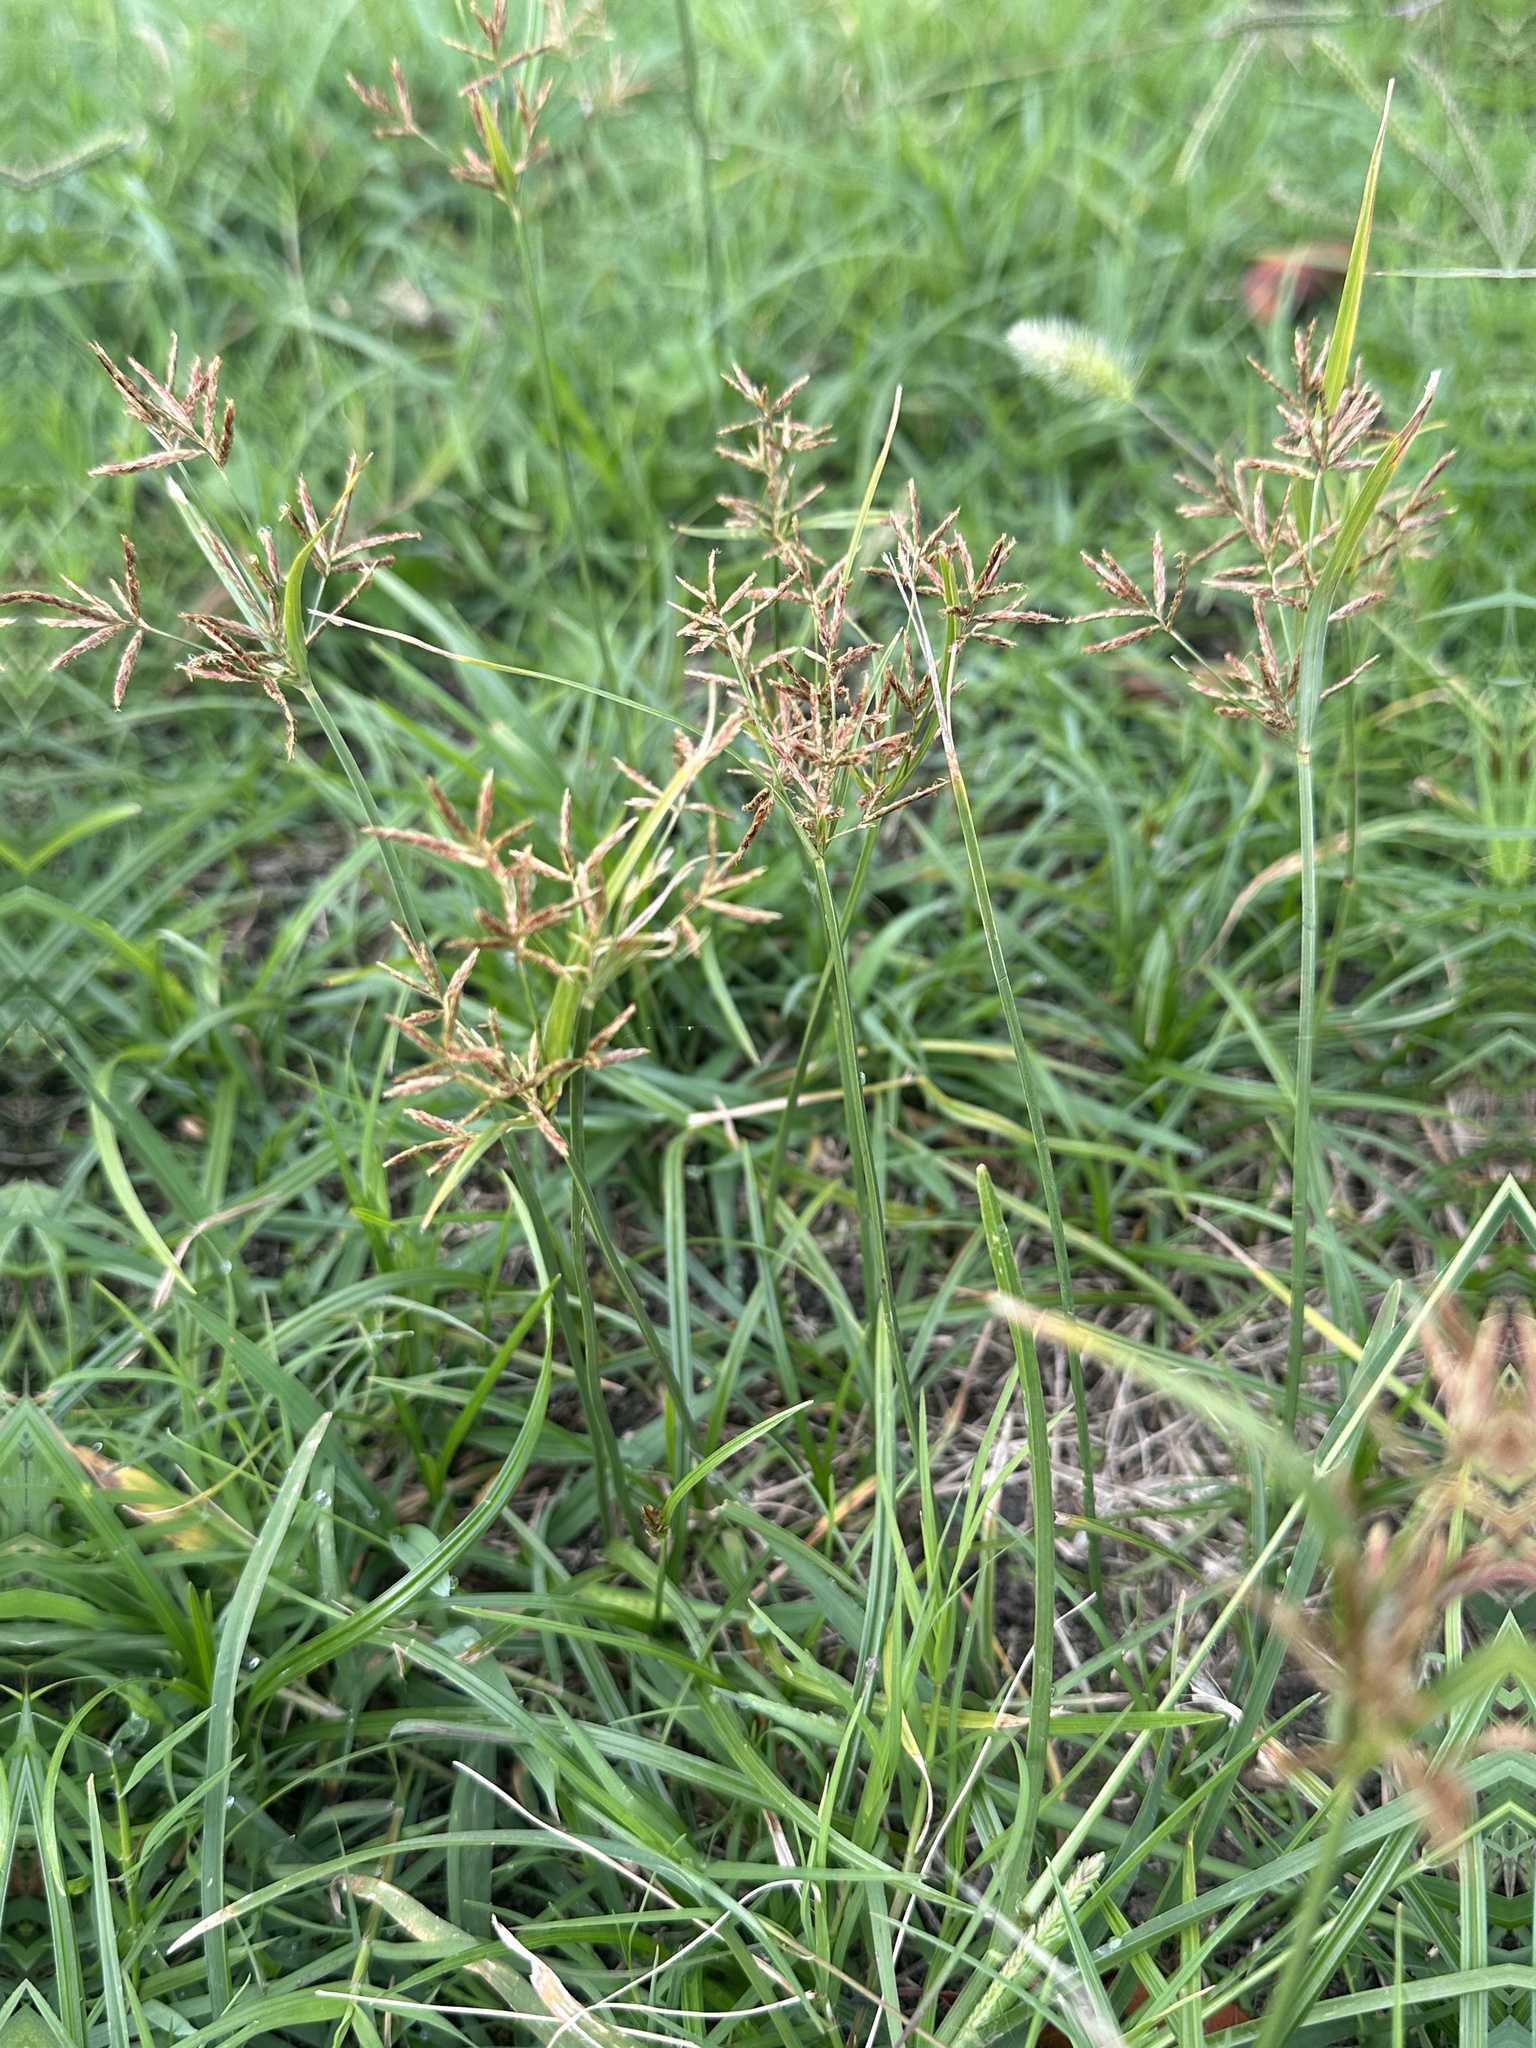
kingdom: Plantae
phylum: Tracheophyta
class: Liliopsida
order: Poales
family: Cyperaceae
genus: Cyperus
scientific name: Cyperus rotundus
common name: Nutgrass
